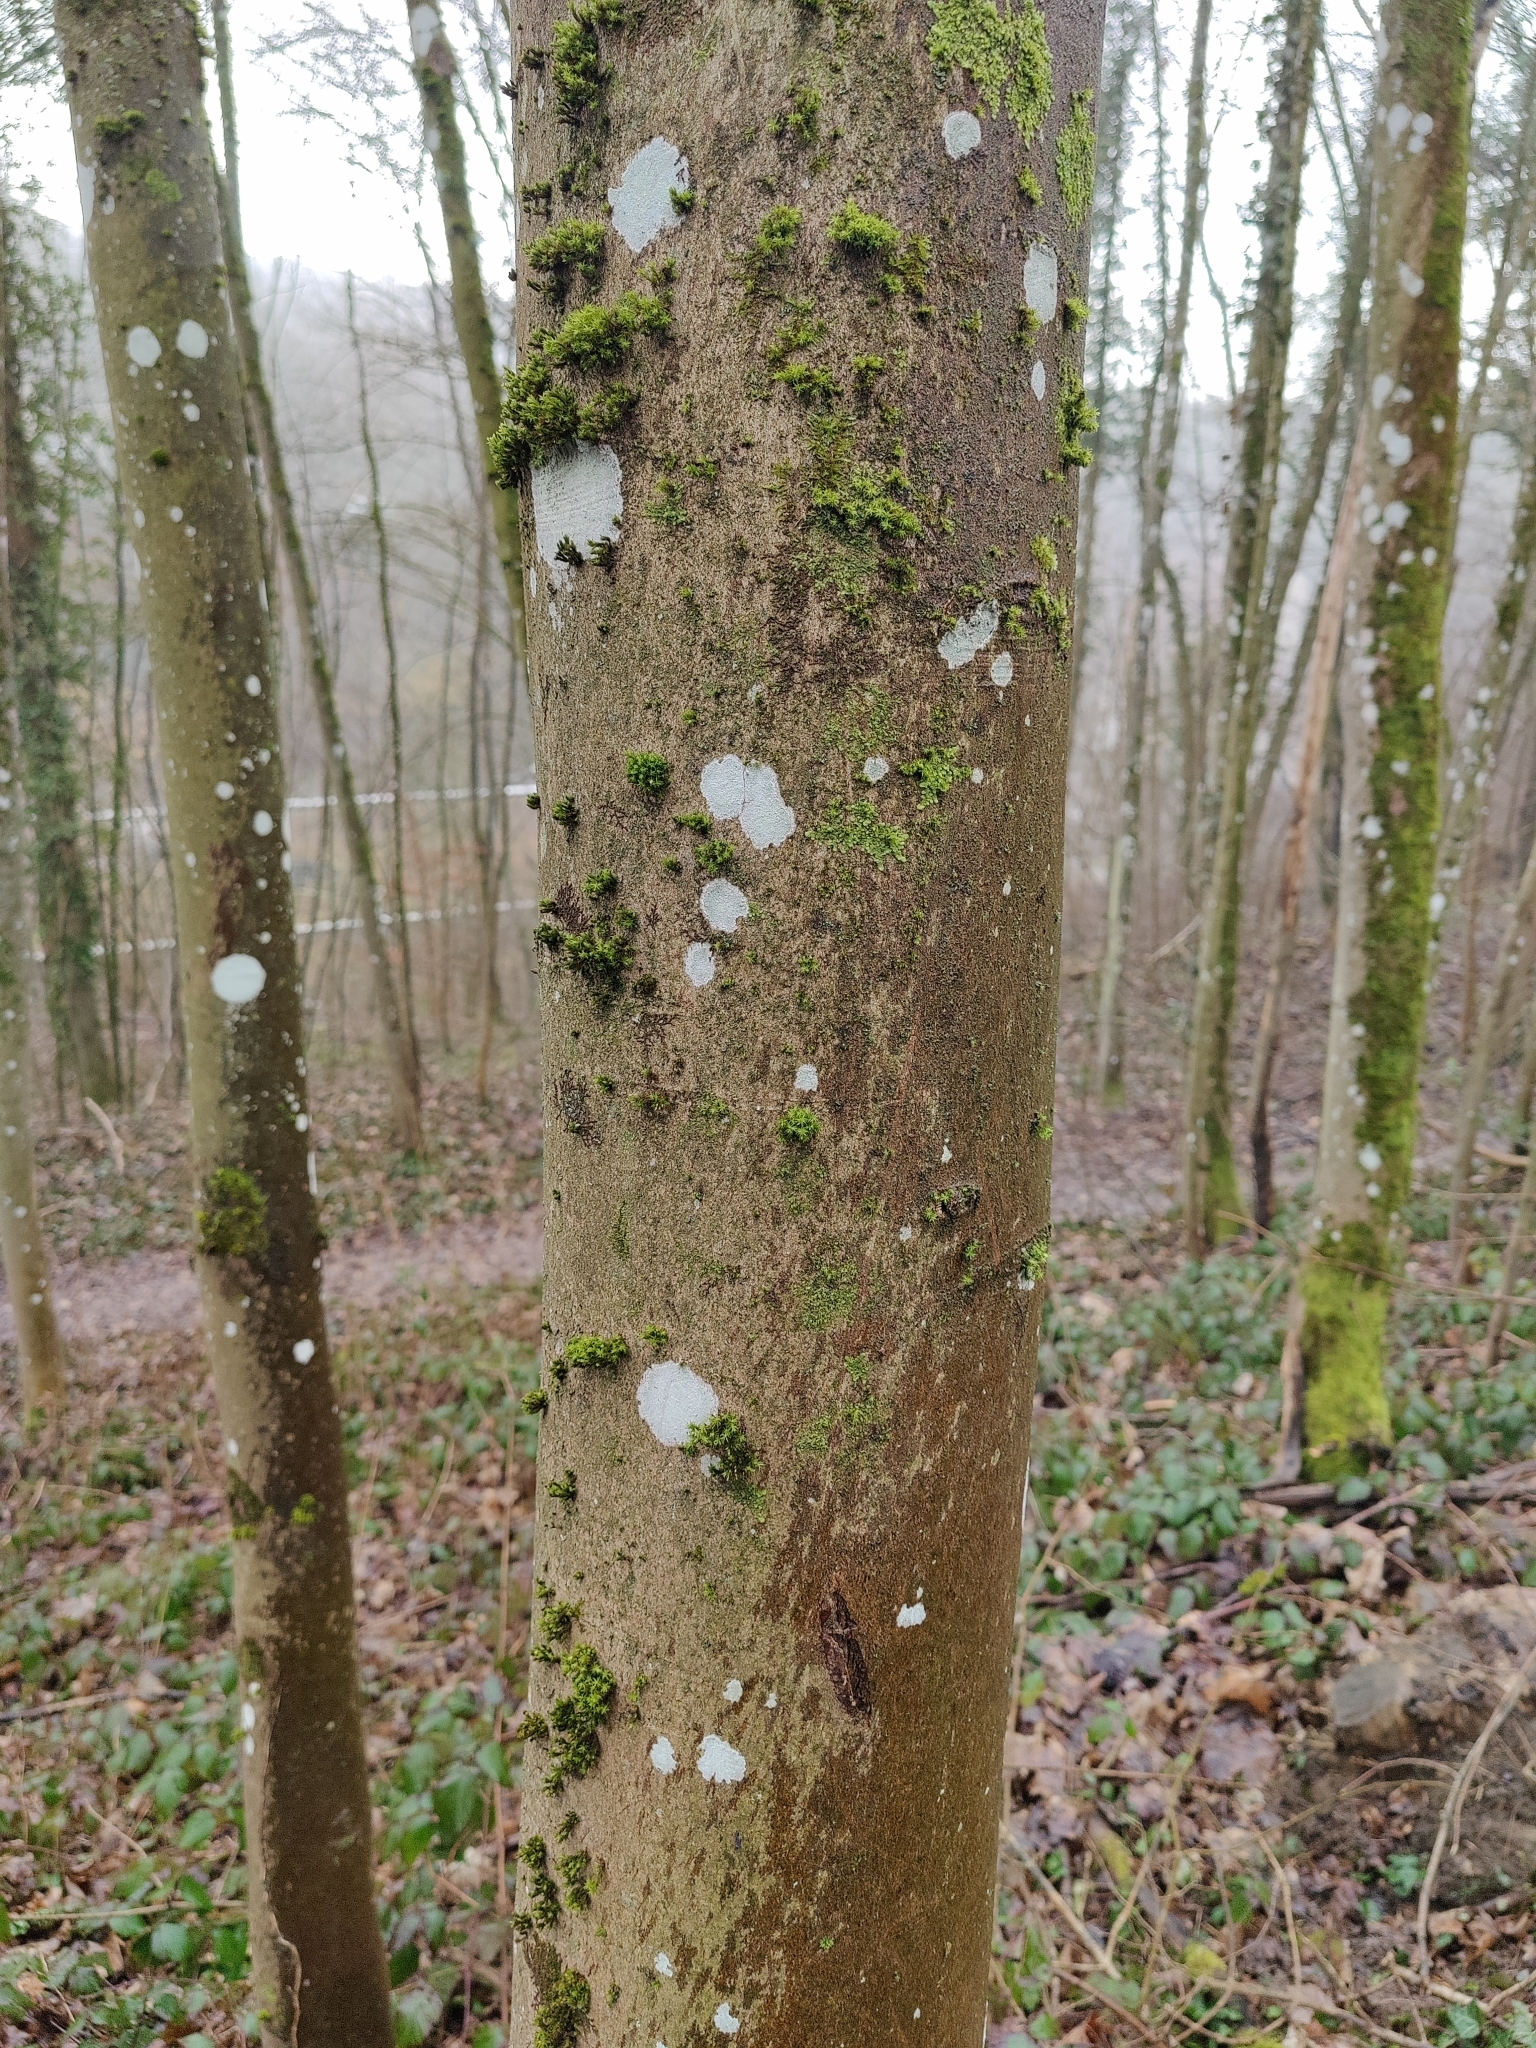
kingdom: Fungi
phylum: Ascomycota
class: Lecanoromycetes
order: Ostropales
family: Phlyctidaceae
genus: Phlyctis
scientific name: Phlyctis argena
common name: Whitewash lichen
